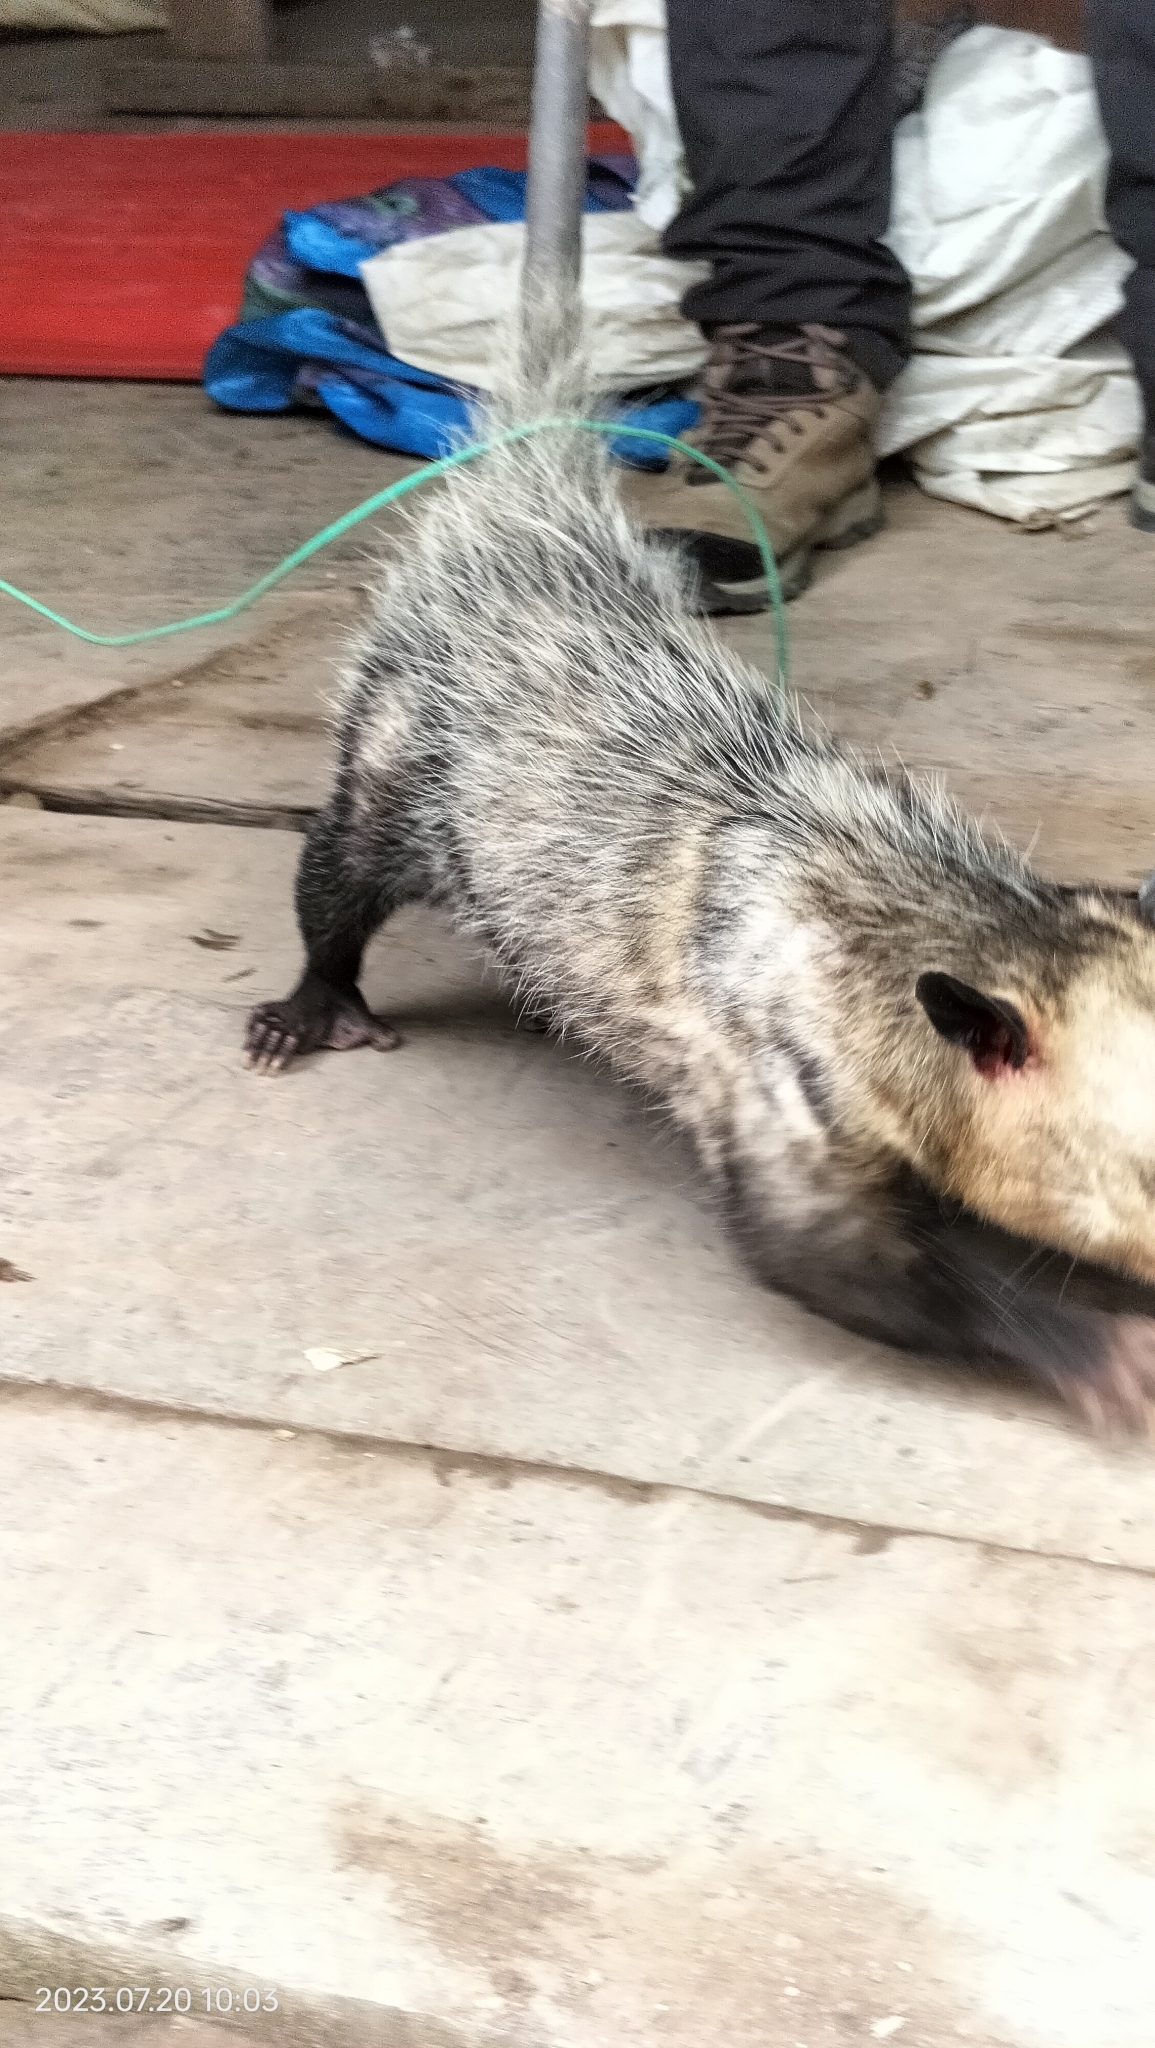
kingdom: Animalia
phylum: Chordata
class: Mammalia
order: Didelphimorphia
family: Didelphidae
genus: Didelphis
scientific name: Didelphis marsupialis
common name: Common opossum
